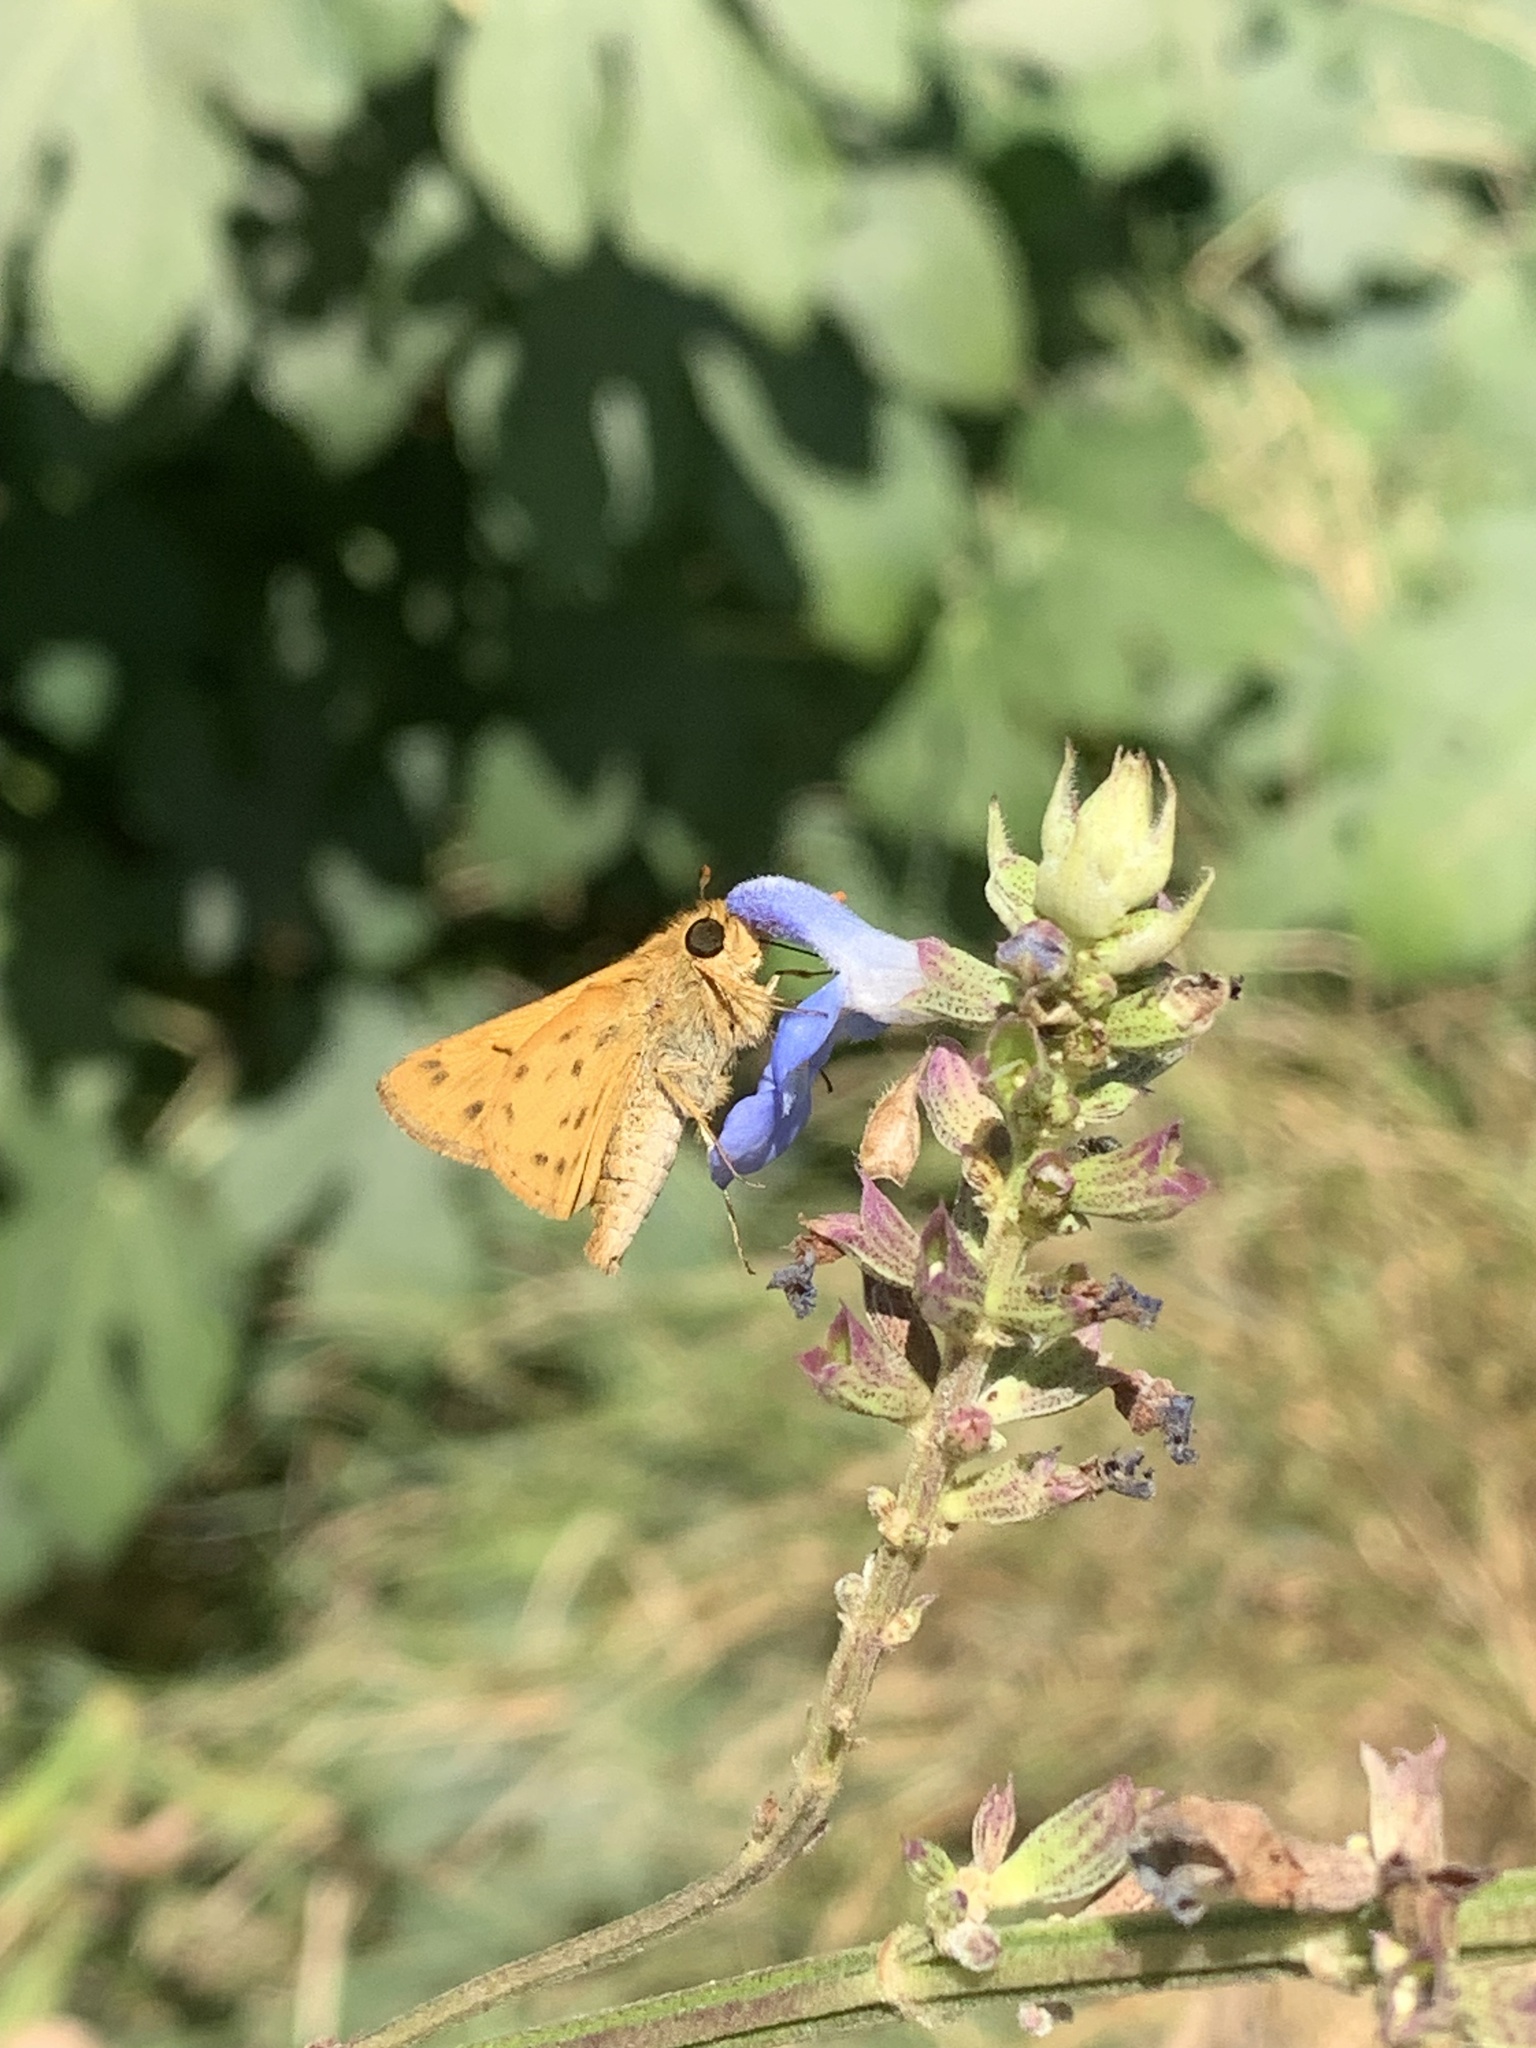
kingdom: Animalia
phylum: Arthropoda
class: Insecta
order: Lepidoptera
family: Hesperiidae
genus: Hylephila
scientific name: Hylephila phyleus
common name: Fiery skipper
